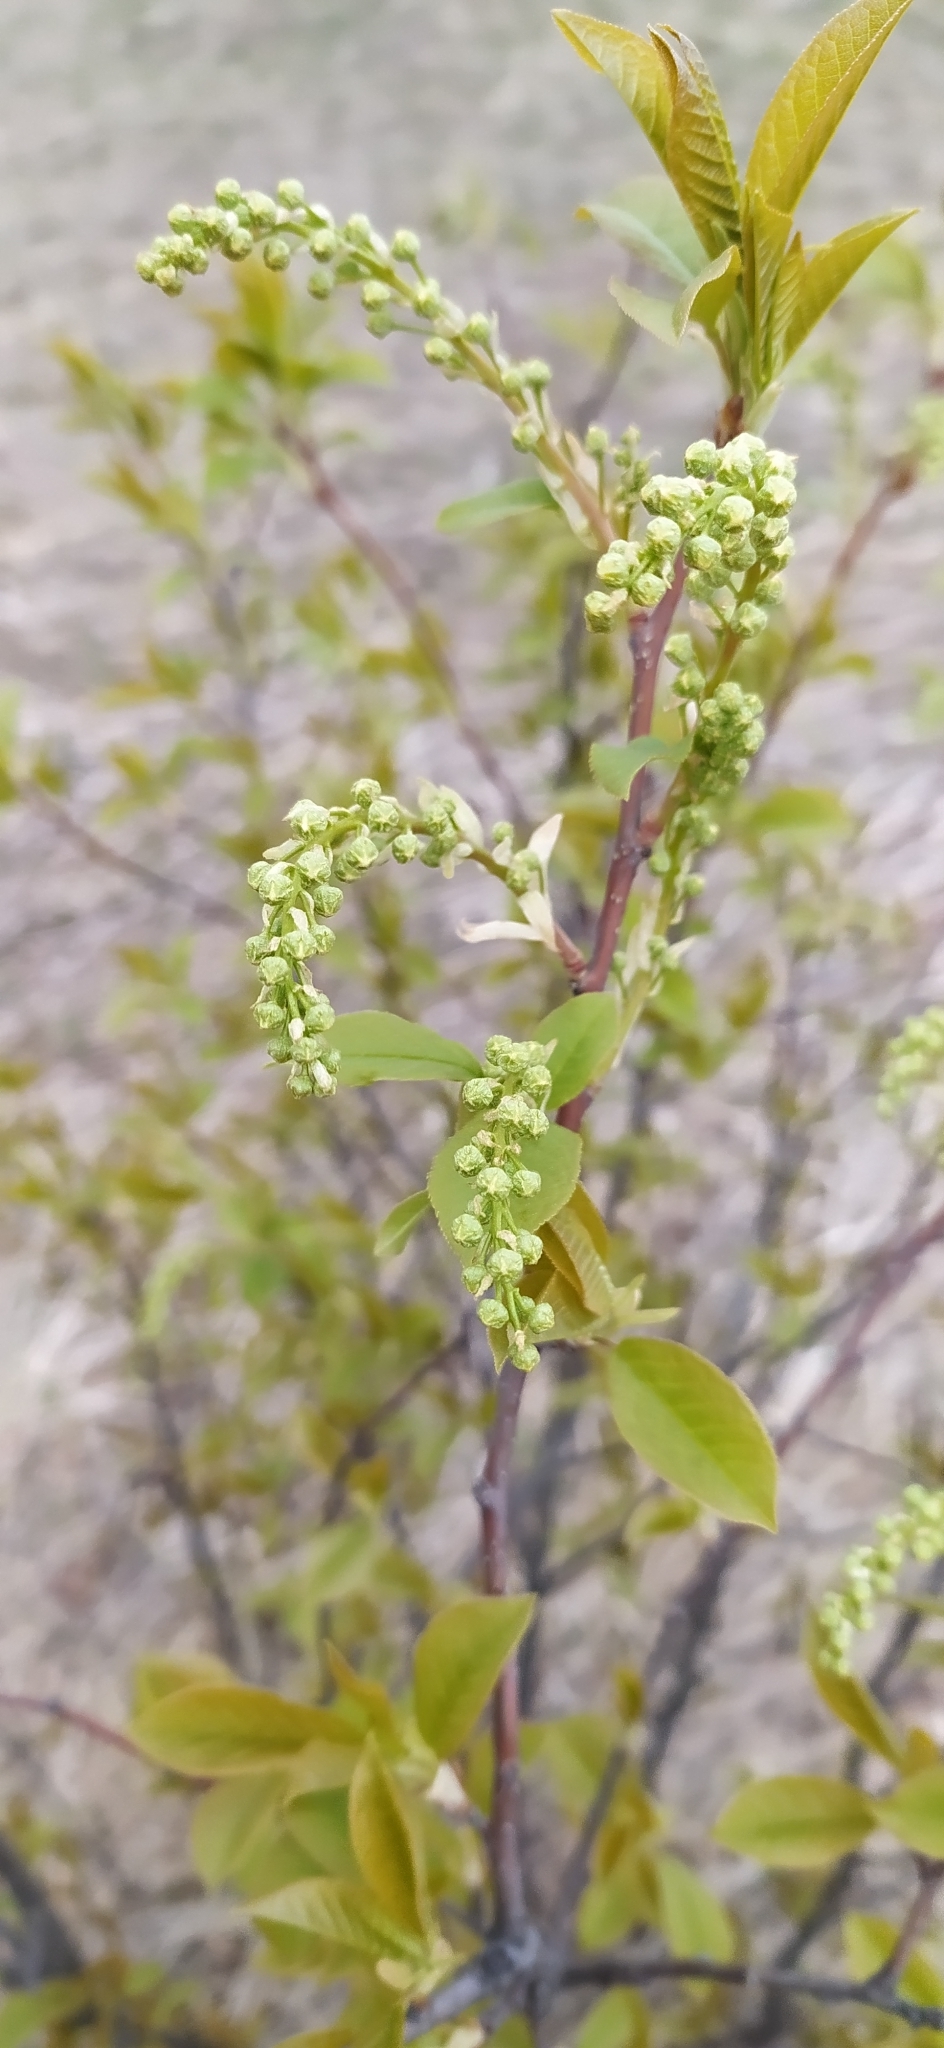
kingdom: Plantae
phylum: Tracheophyta
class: Magnoliopsida
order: Rosales
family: Rosaceae
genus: Prunus
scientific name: Prunus padus
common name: Bird cherry
